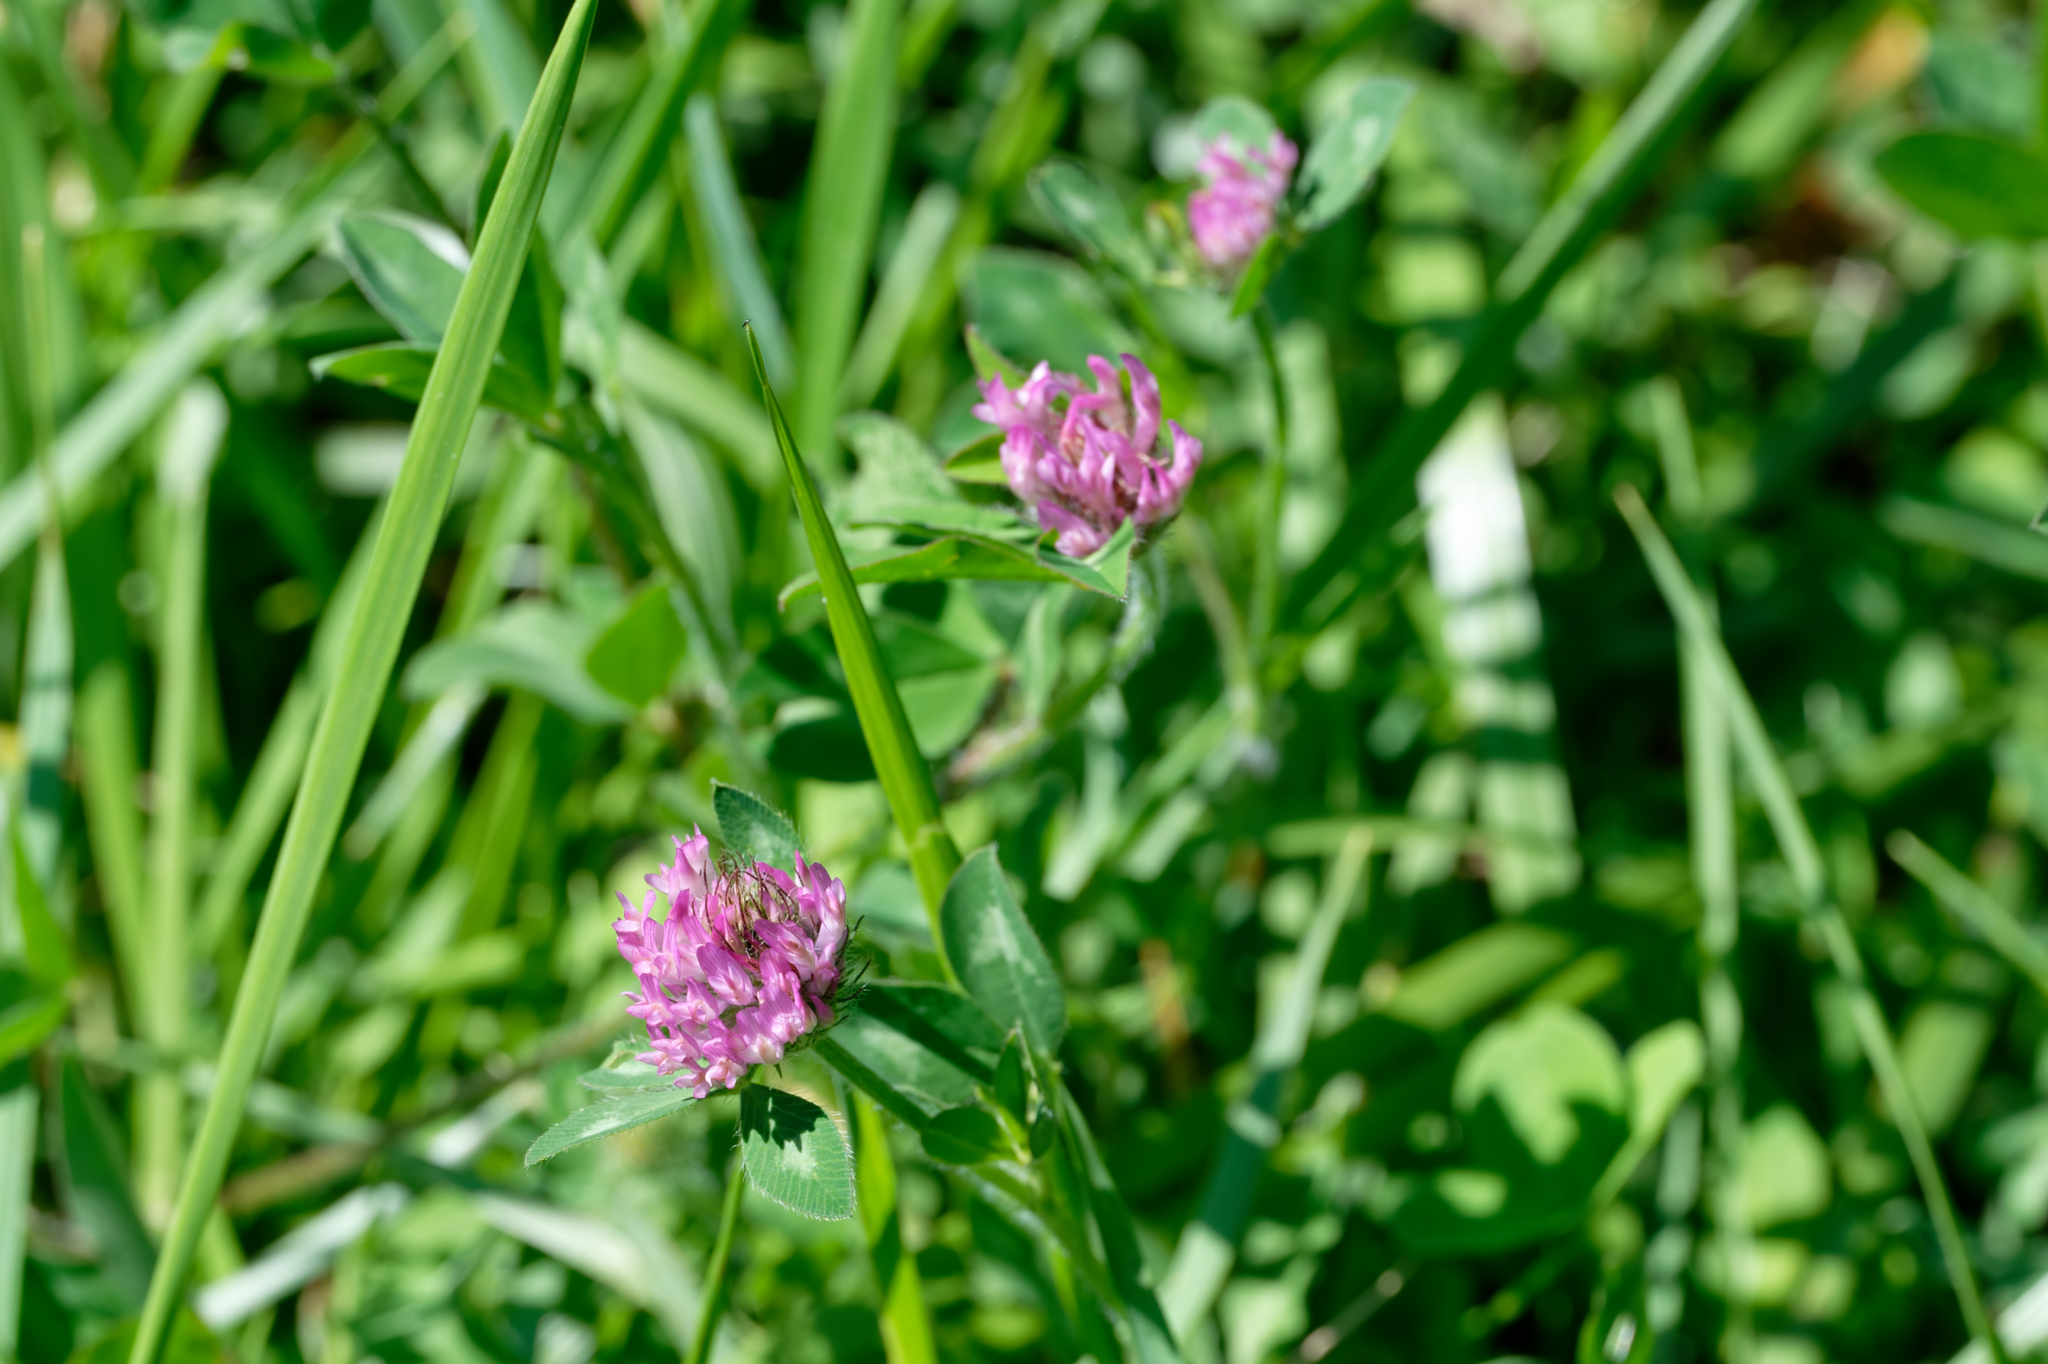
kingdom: Plantae
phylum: Tracheophyta
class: Magnoliopsida
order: Fabales
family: Fabaceae
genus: Trifolium
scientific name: Trifolium pratense
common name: Red clover
